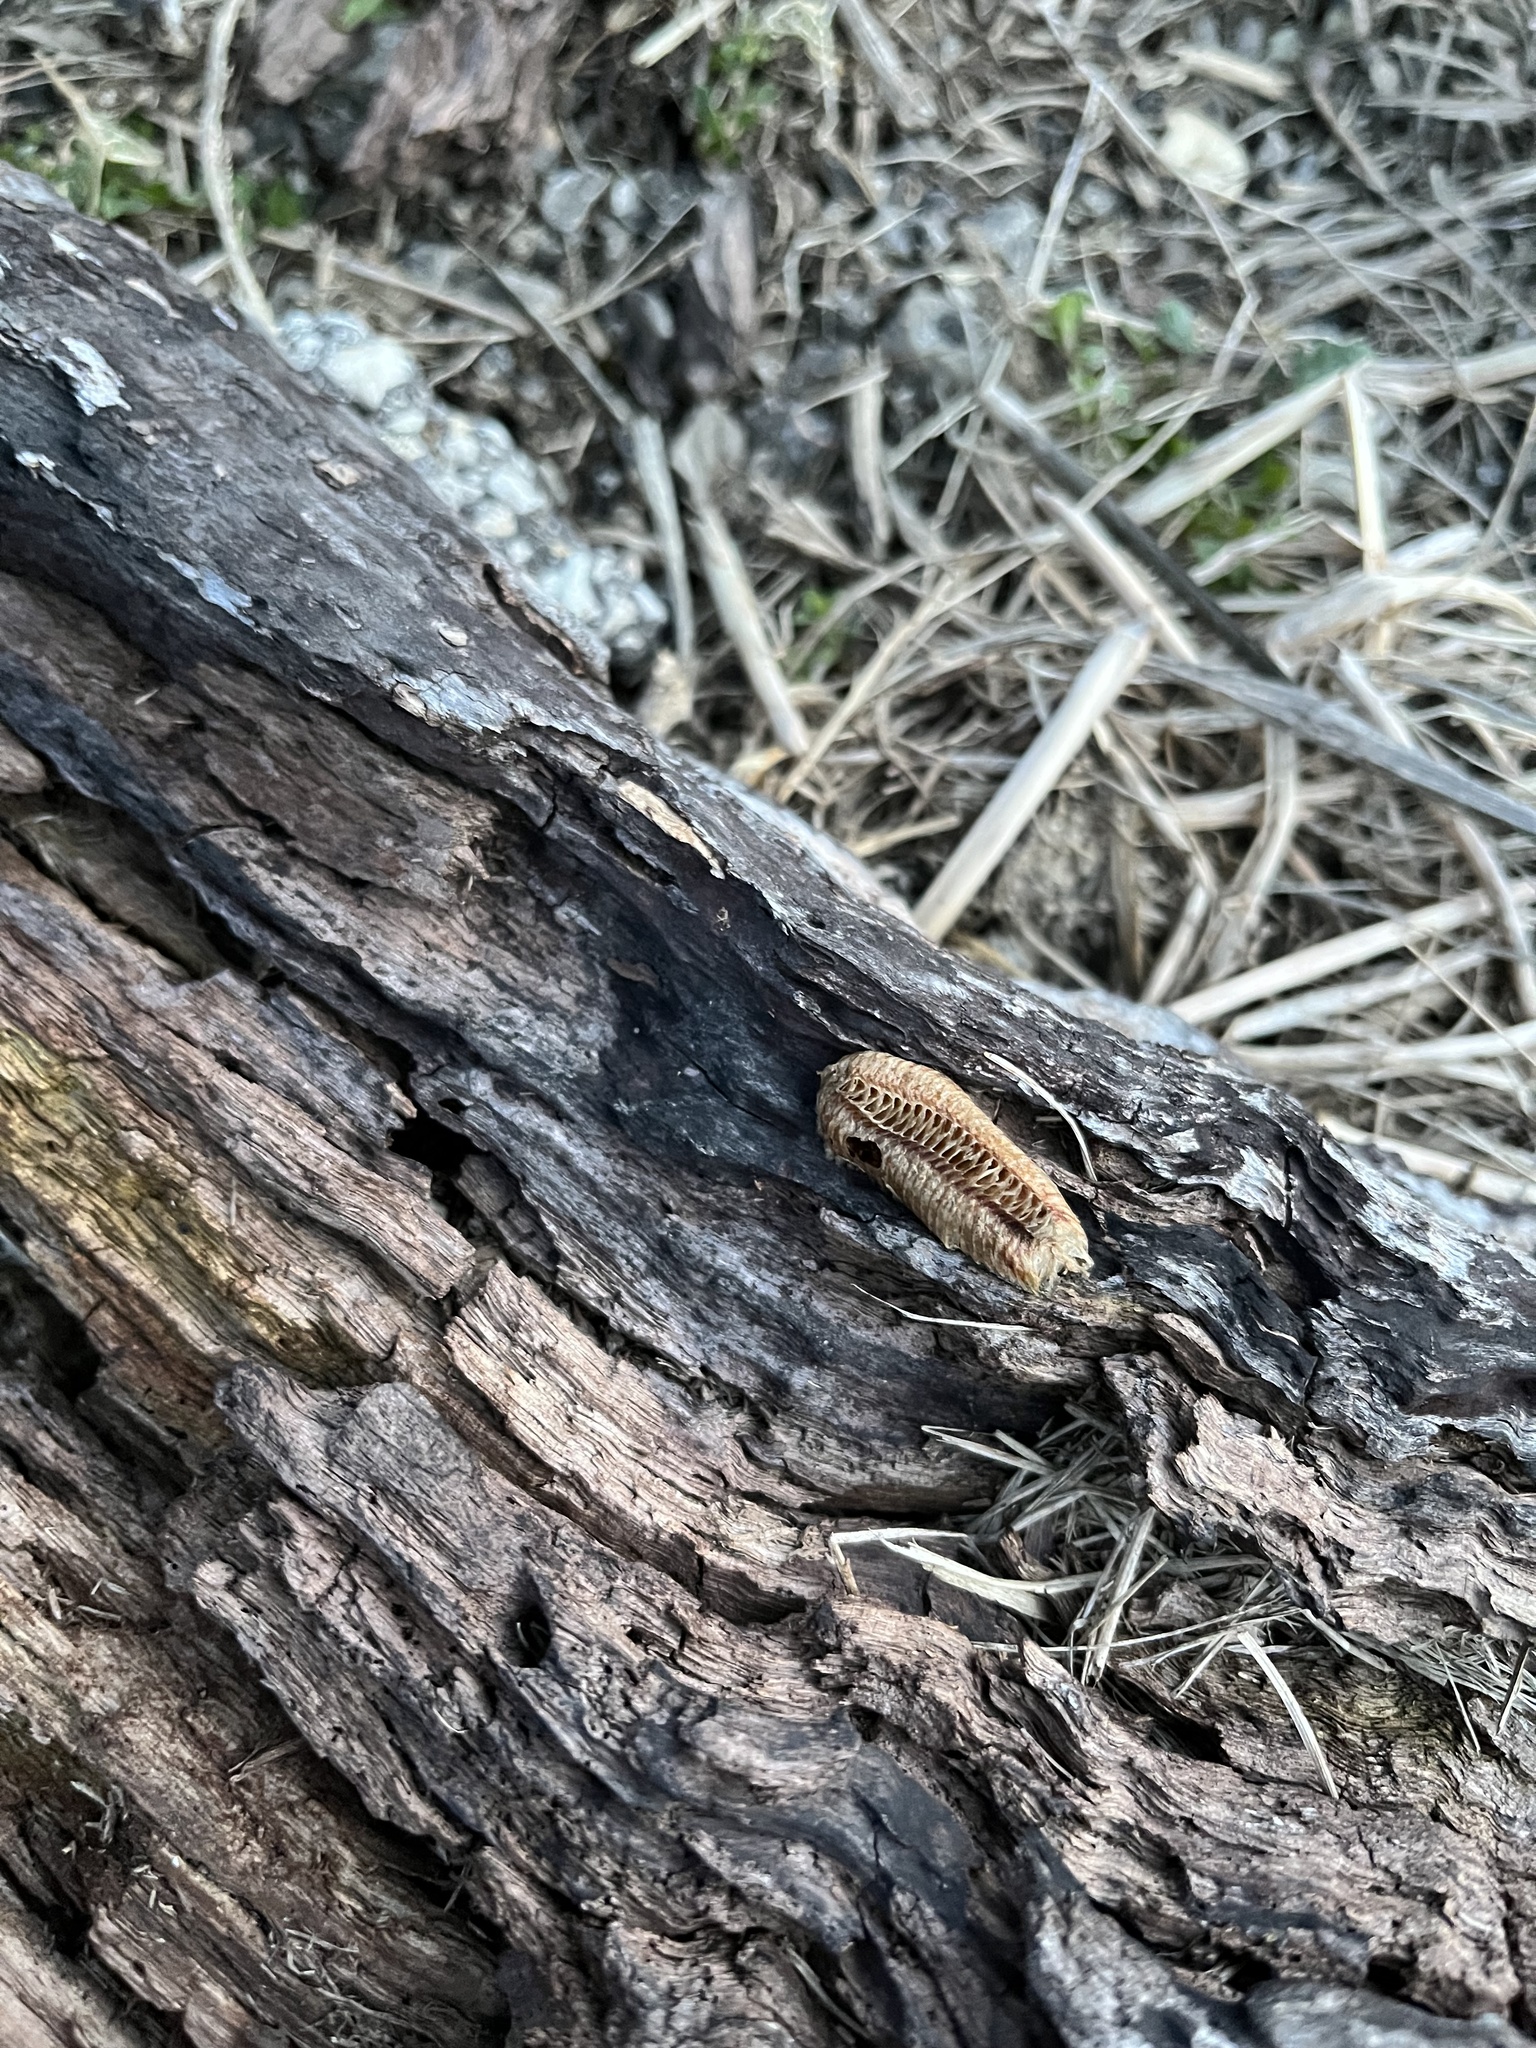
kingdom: Animalia
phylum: Arthropoda
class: Insecta
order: Mantodea
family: Mantidae
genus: Stagmomantis
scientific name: Stagmomantis carolina
